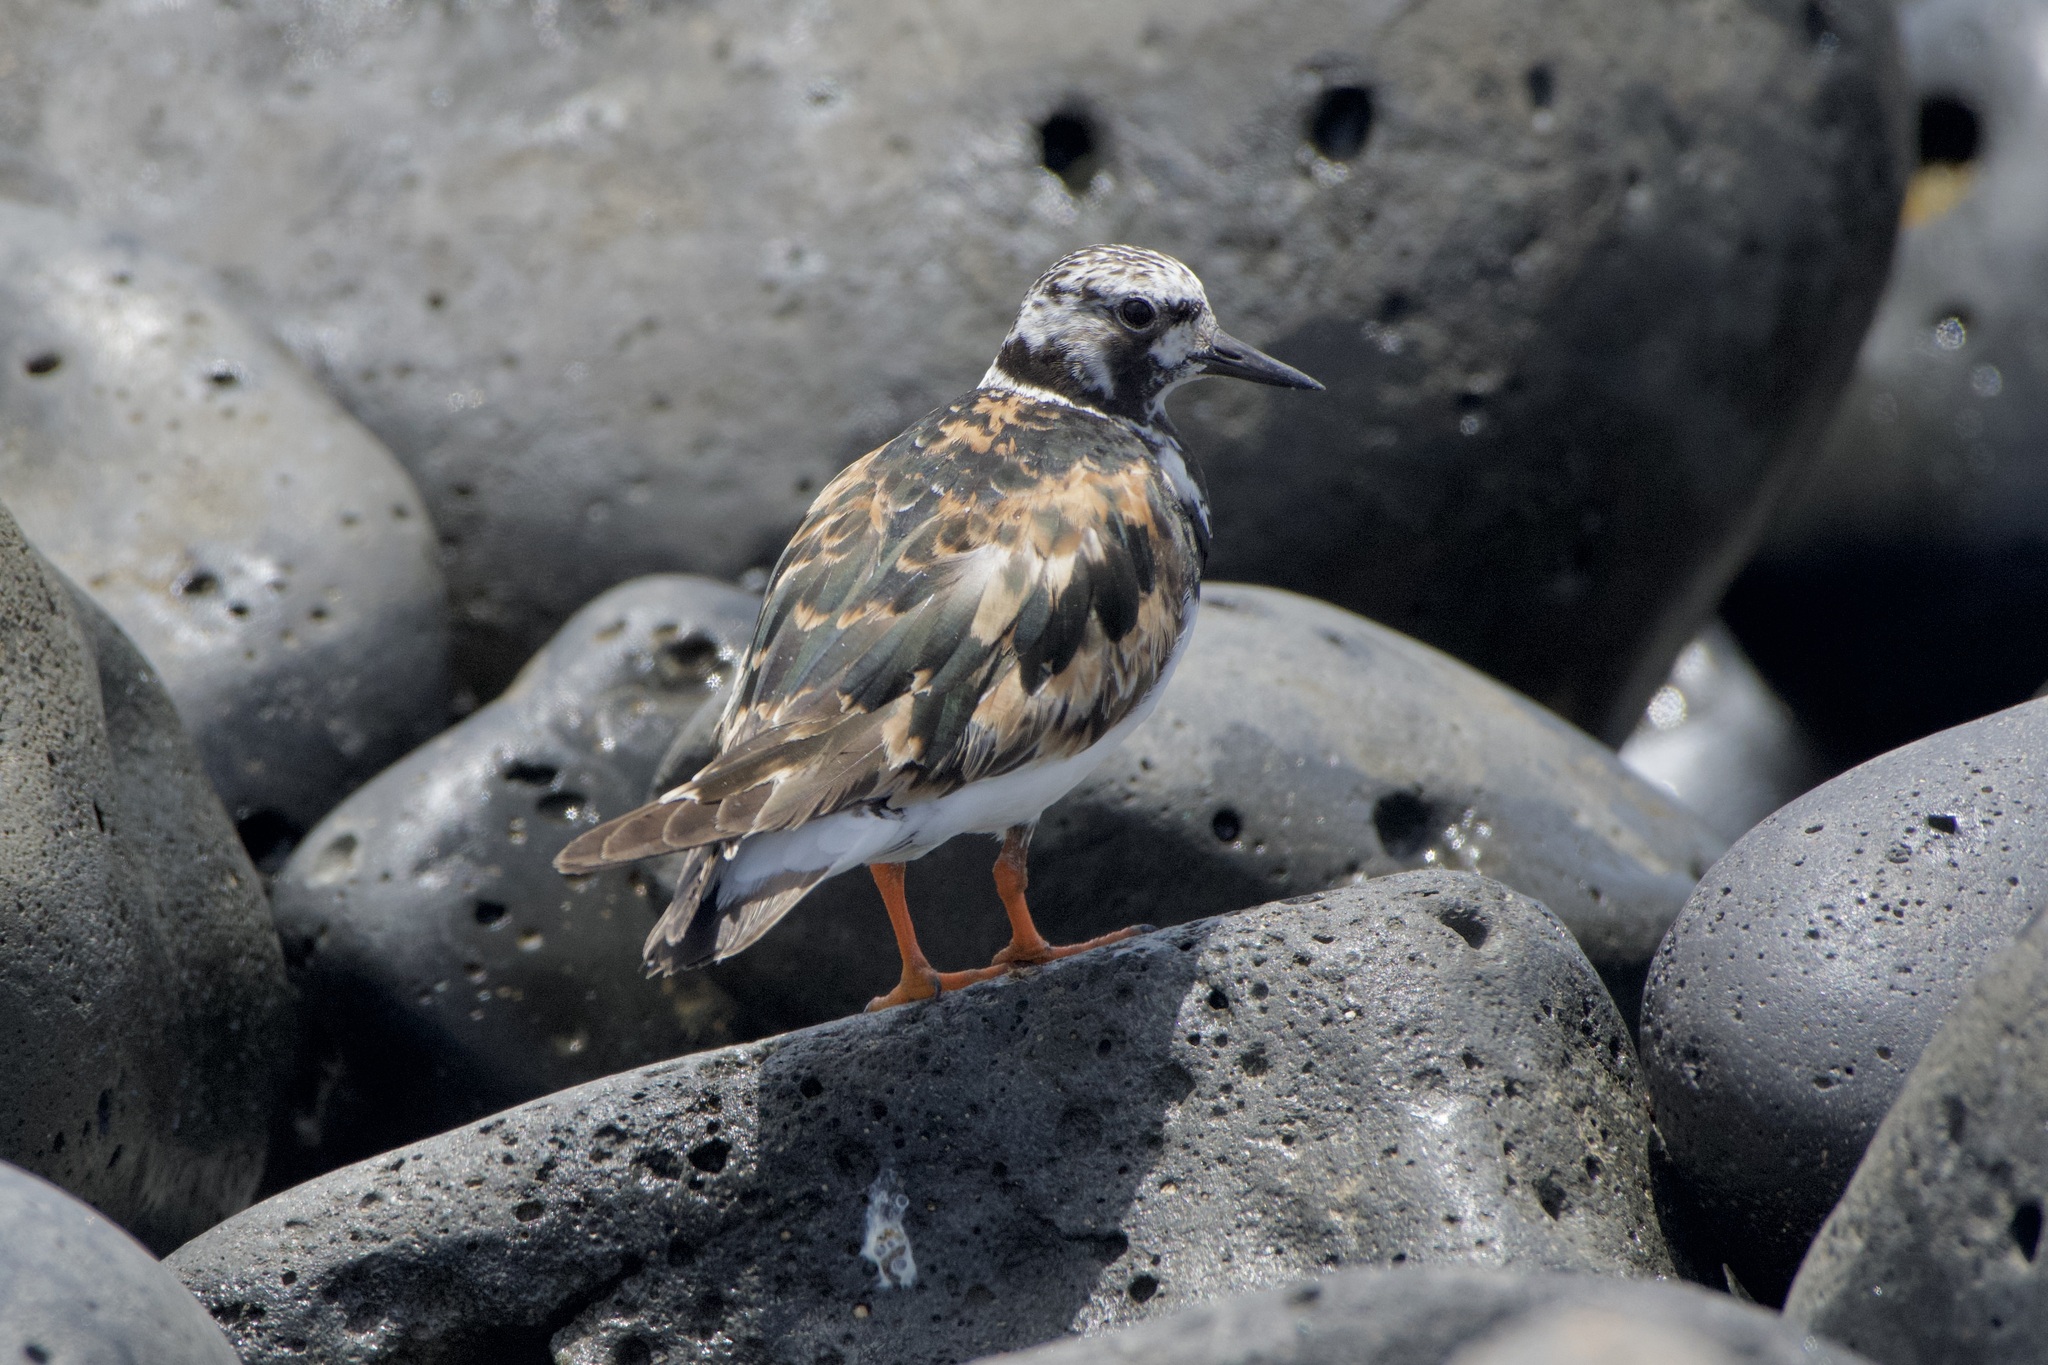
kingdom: Animalia
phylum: Chordata
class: Aves
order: Charadriiformes
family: Scolopacidae
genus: Arenaria
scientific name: Arenaria interpres
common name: Ruddy turnstone
